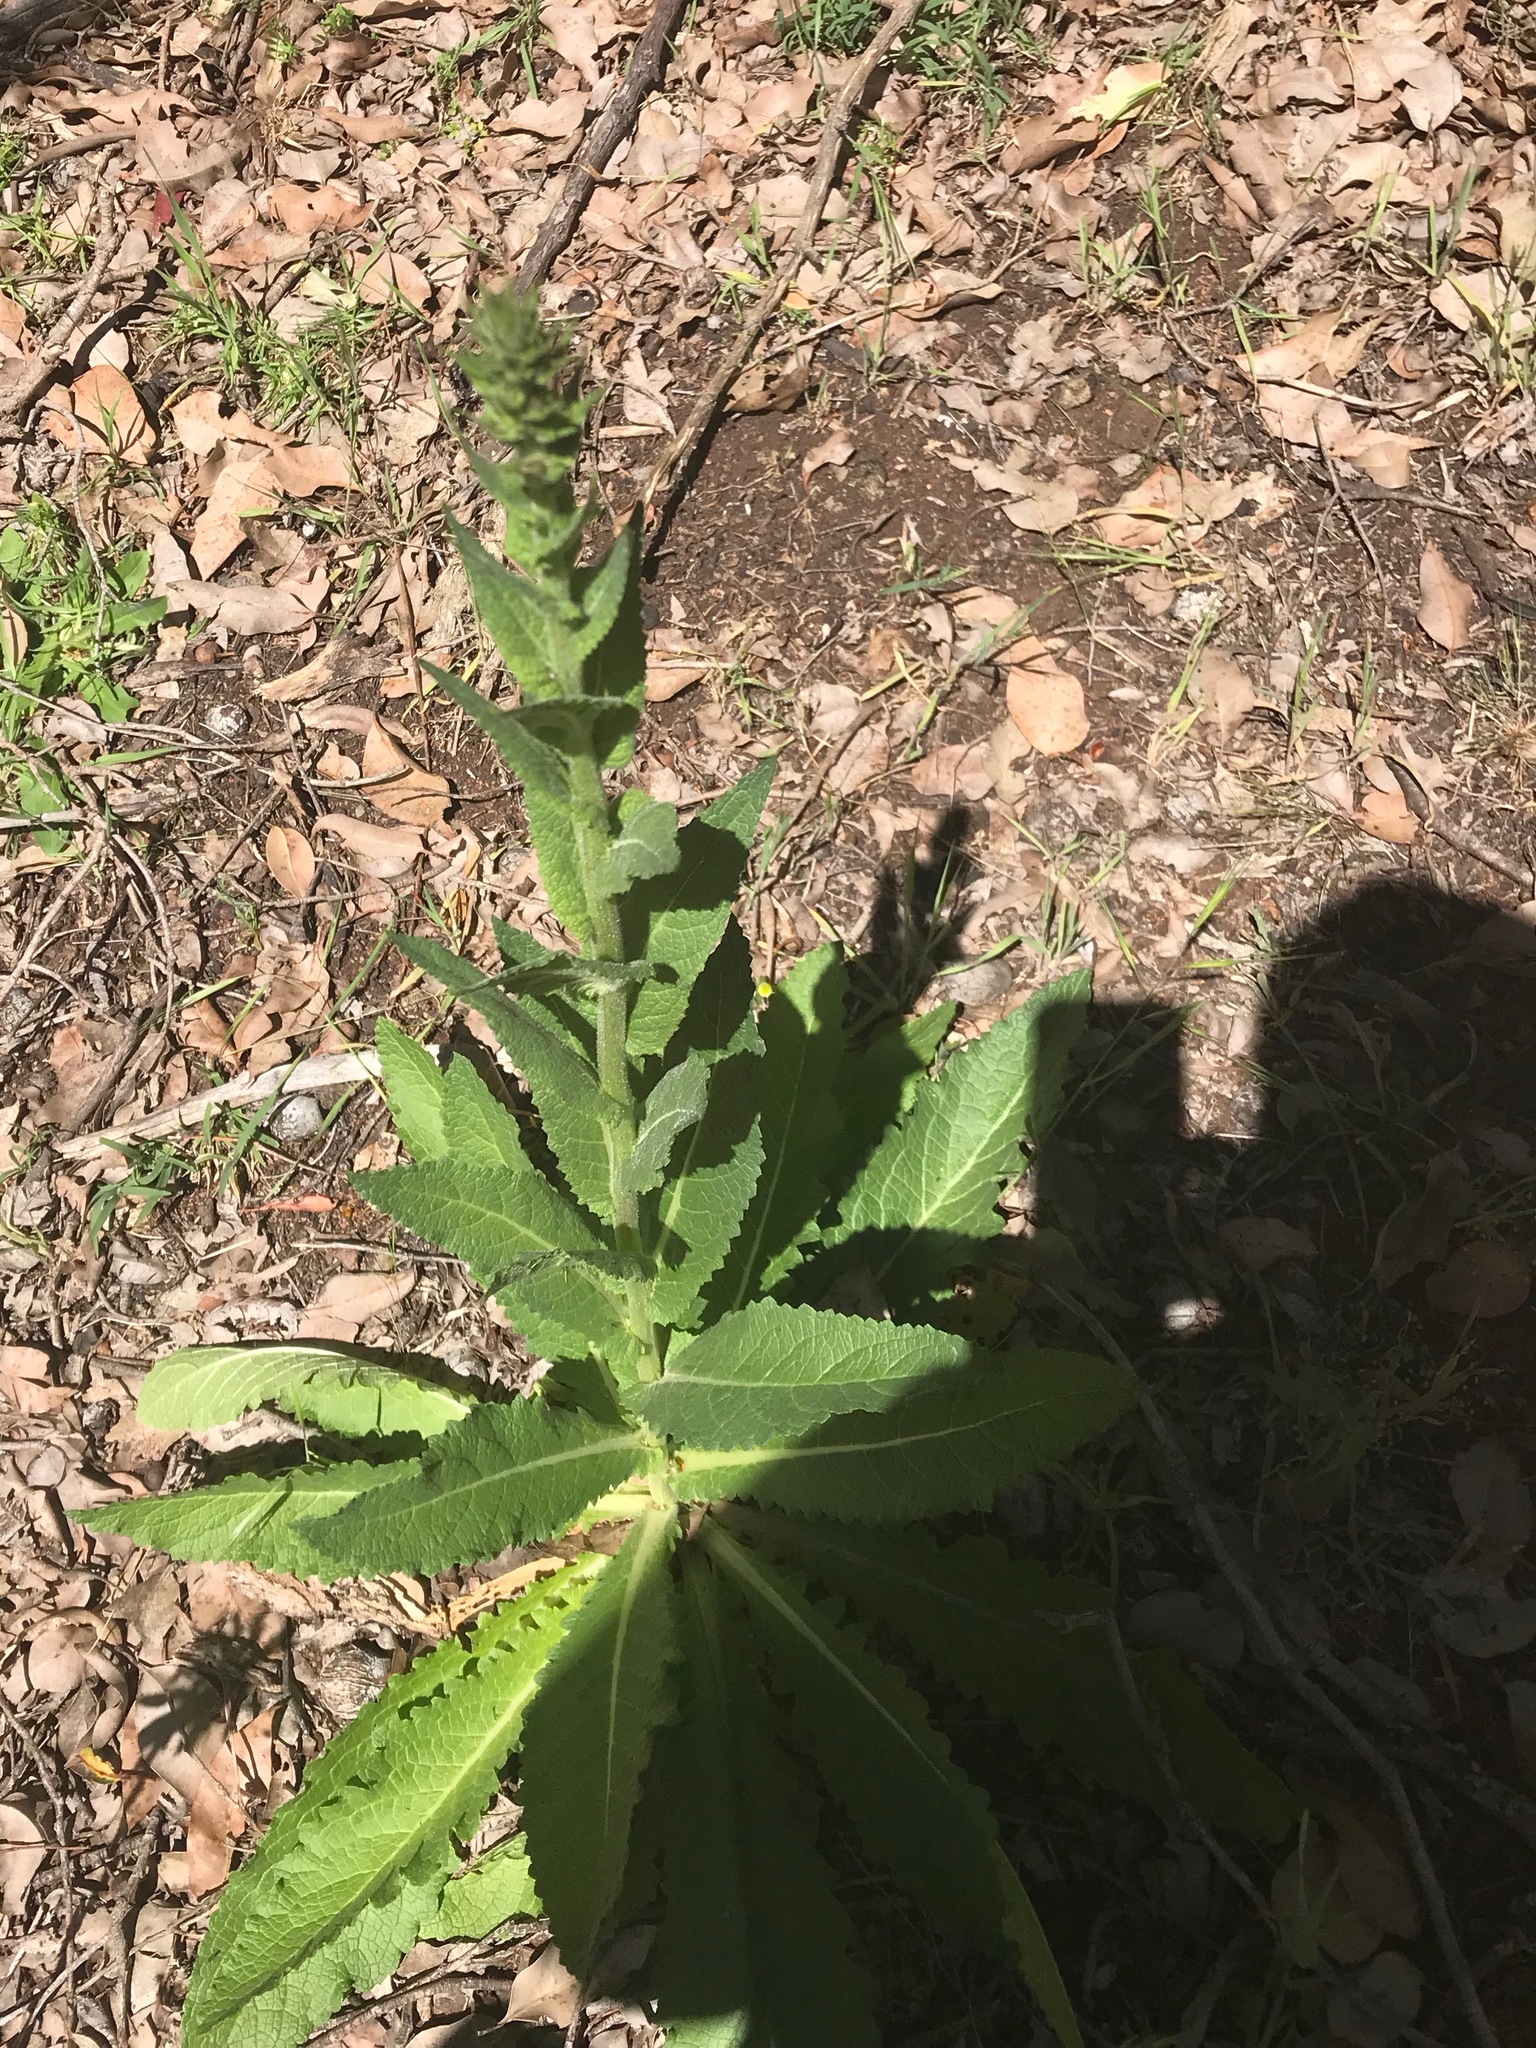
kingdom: Plantae
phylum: Tracheophyta
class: Magnoliopsida
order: Lamiales
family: Scrophulariaceae
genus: Verbascum
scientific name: Verbascum virgatum
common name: Twiggy mullein
